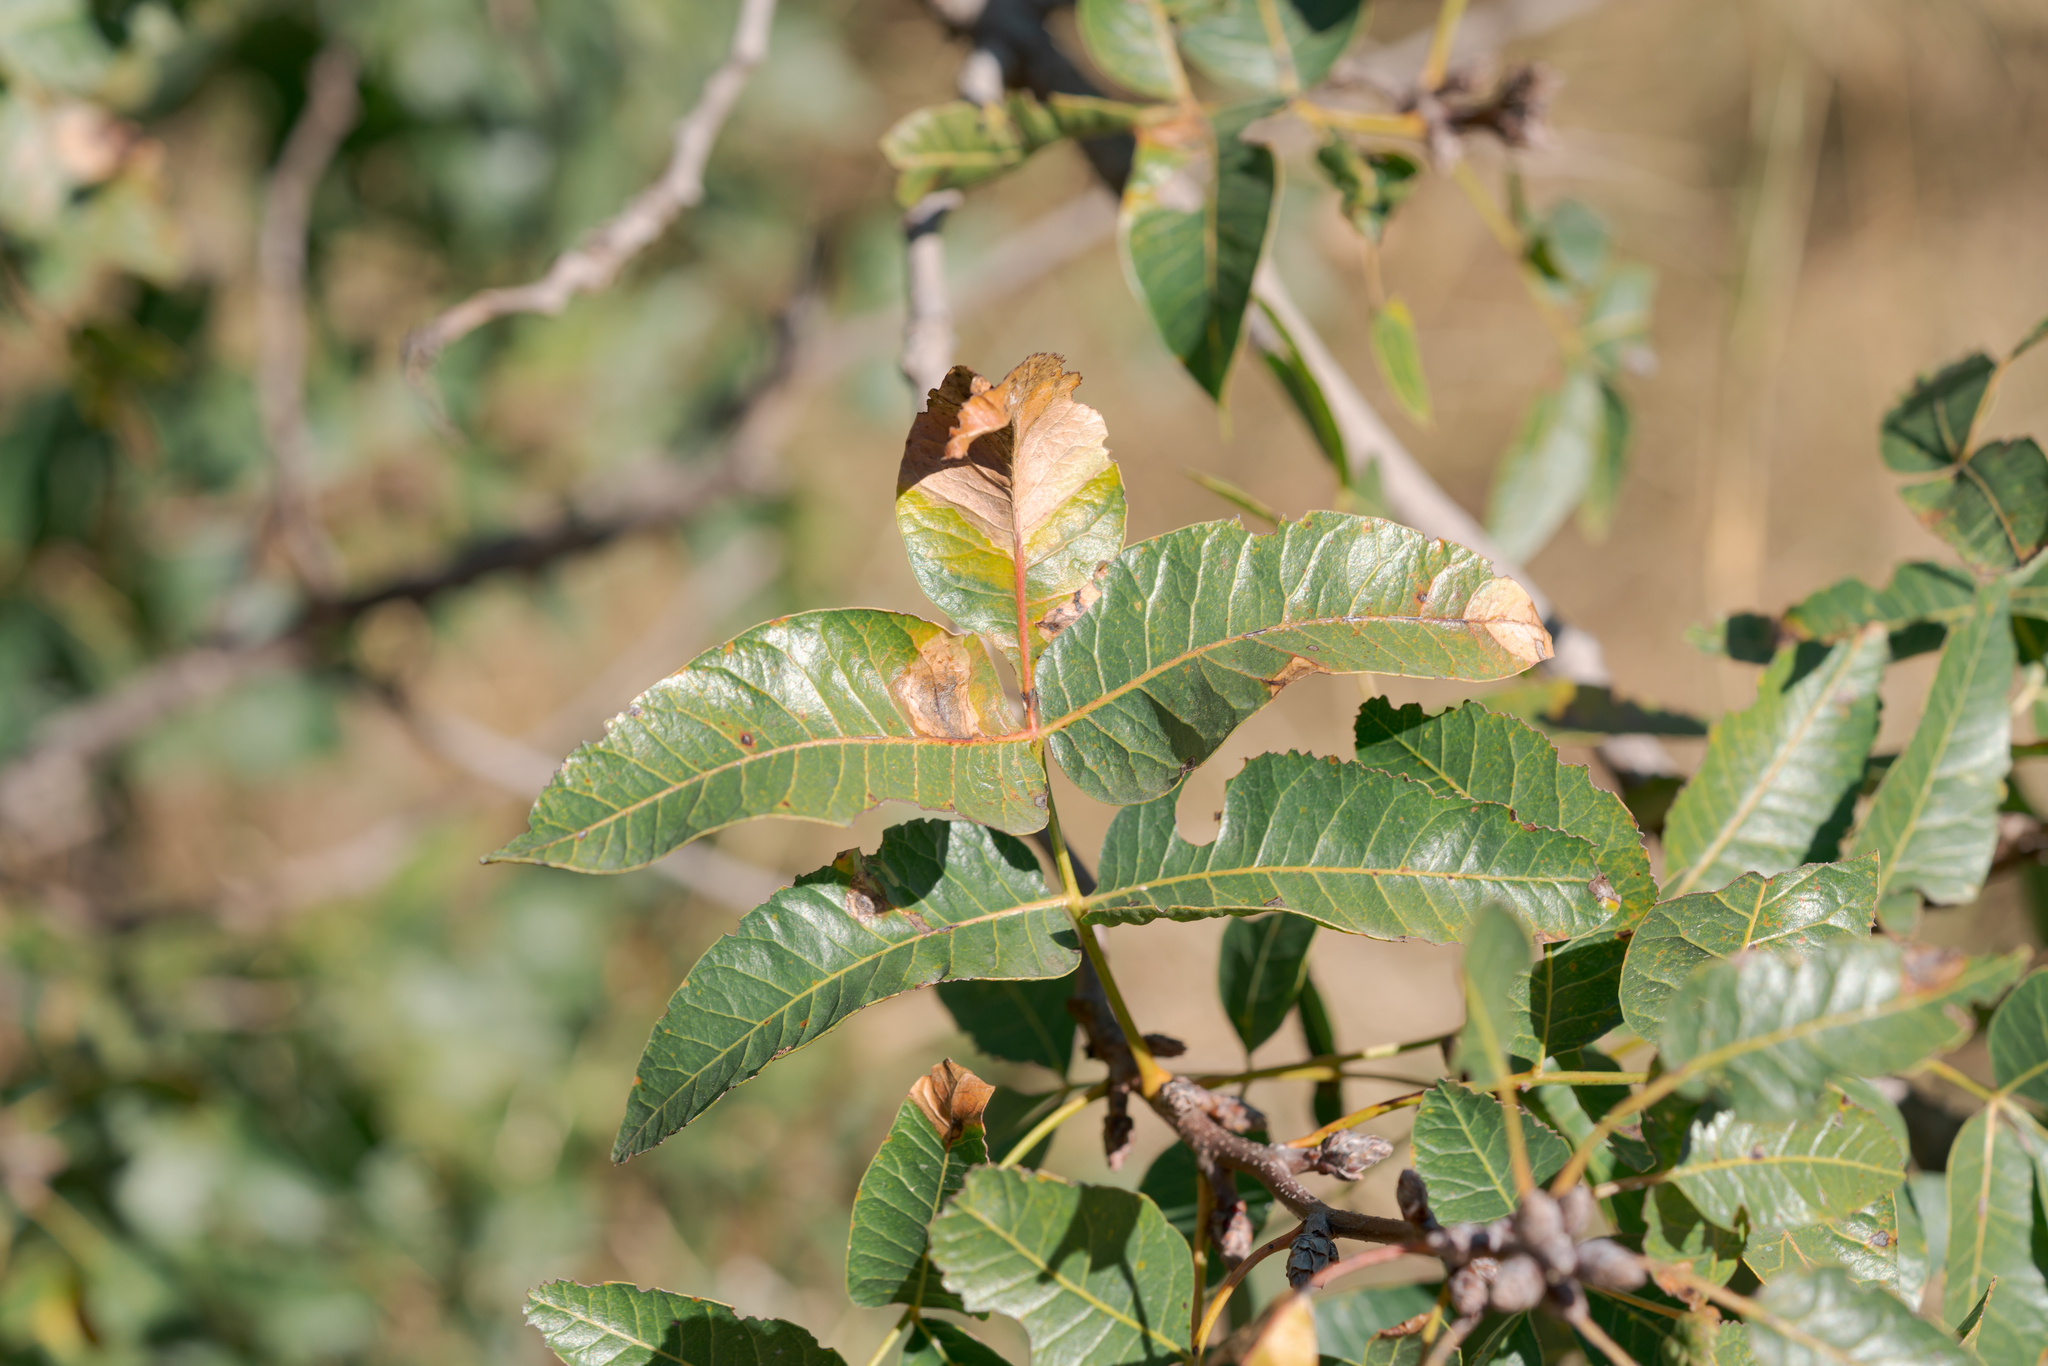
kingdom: Plantae
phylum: Tracheophyta
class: Magnoliopsida
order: Sapindales
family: Anacardiaceae
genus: Pistacia
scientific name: Pistacia atlantica
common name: Mt. atlas mastic tree
